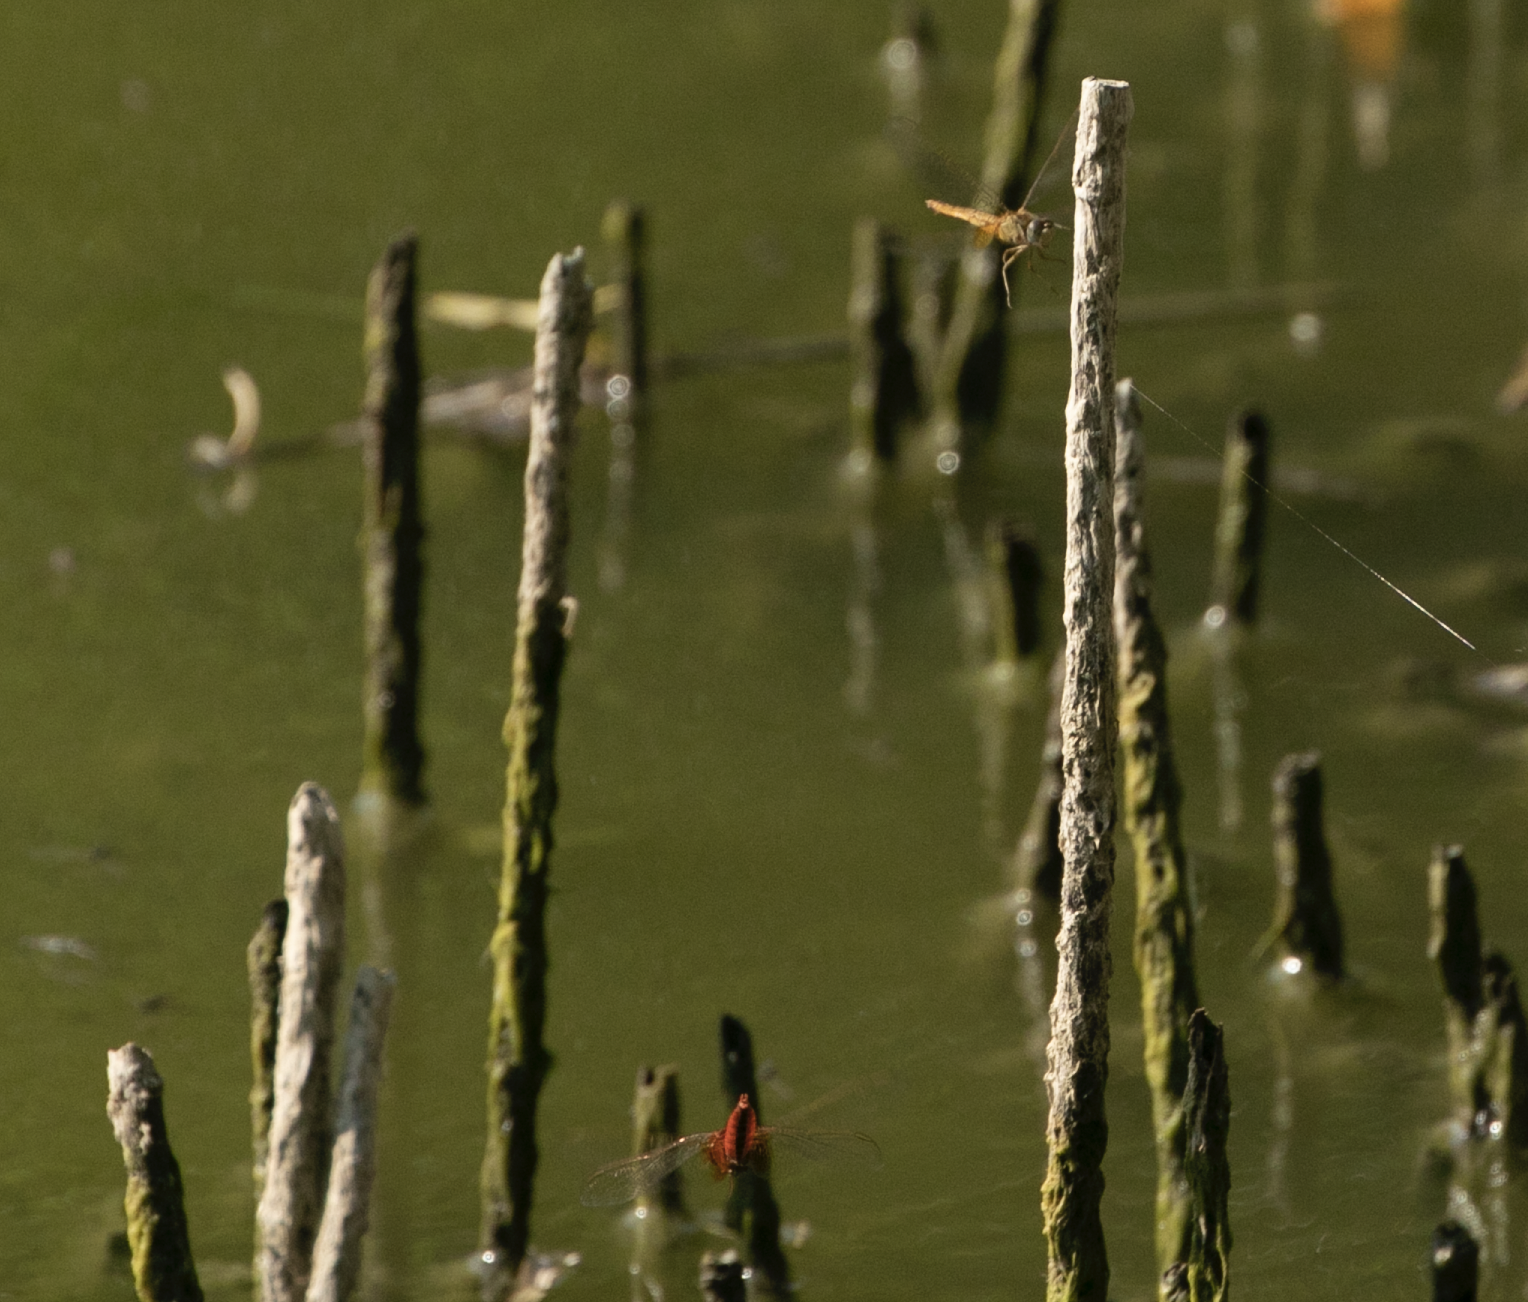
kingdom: Animalia
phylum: Arthropoda
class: Insecta
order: Odonata
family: Libellulidae
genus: Crocothemis
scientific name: Crocothemis erythraea
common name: Scarlet dragonfly
